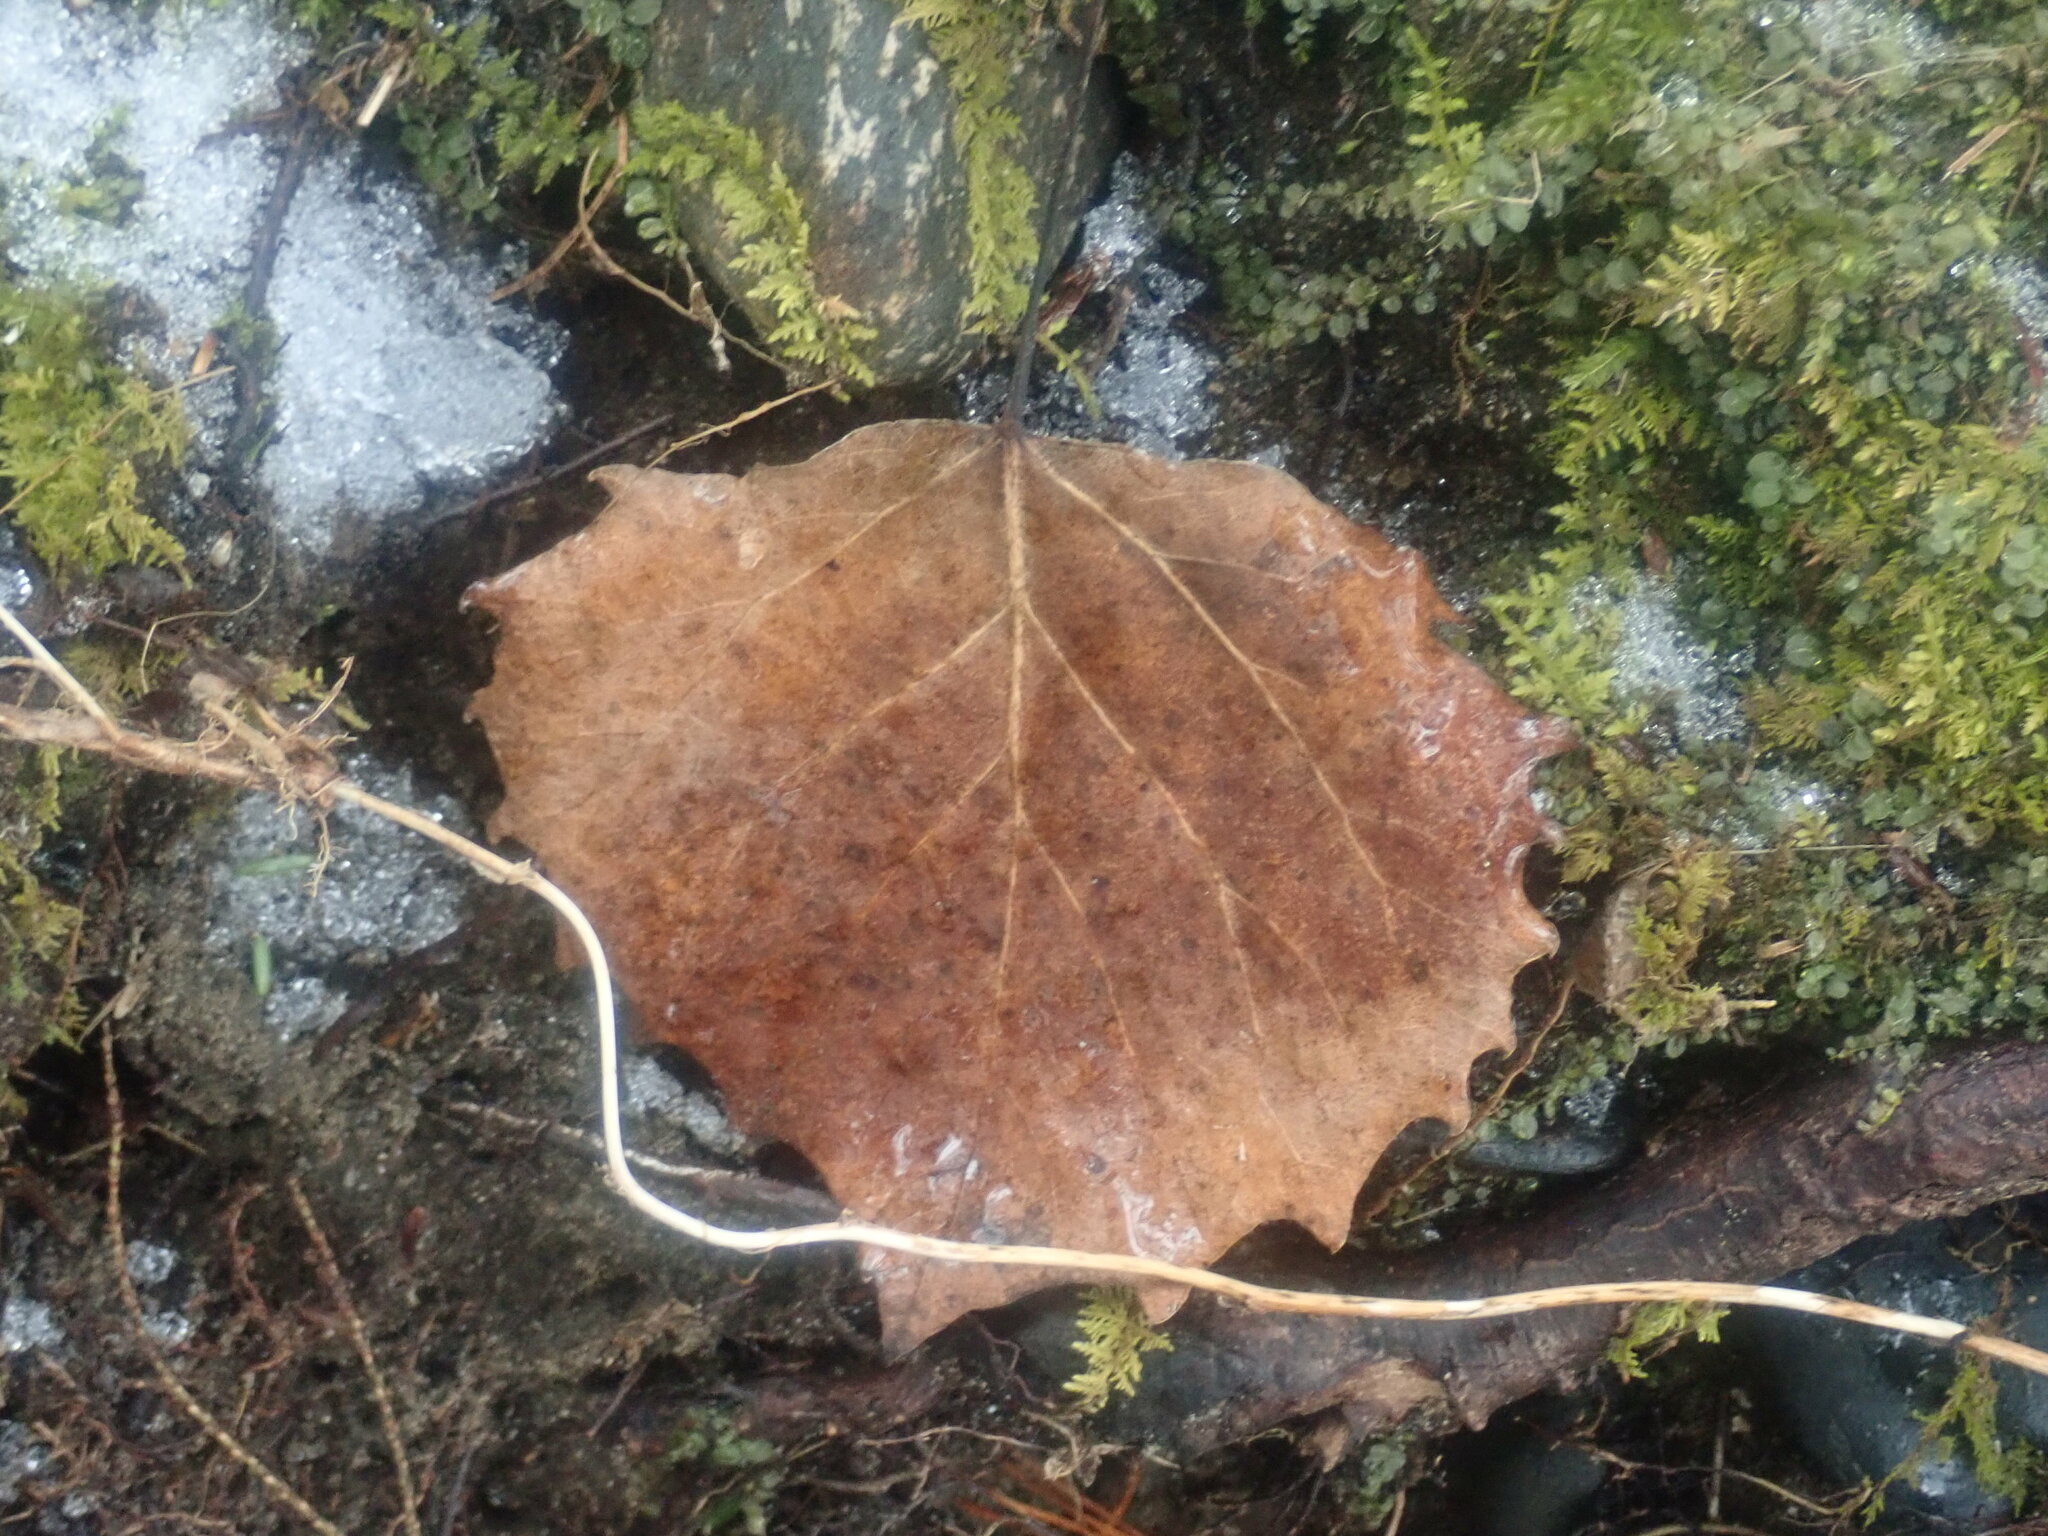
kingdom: Plantae
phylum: Tracheophyta
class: Magnoliopsida
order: Malpighiales
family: Salicaceae
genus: Populus
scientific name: Populus grandidentata
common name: Bigtooth aspen
